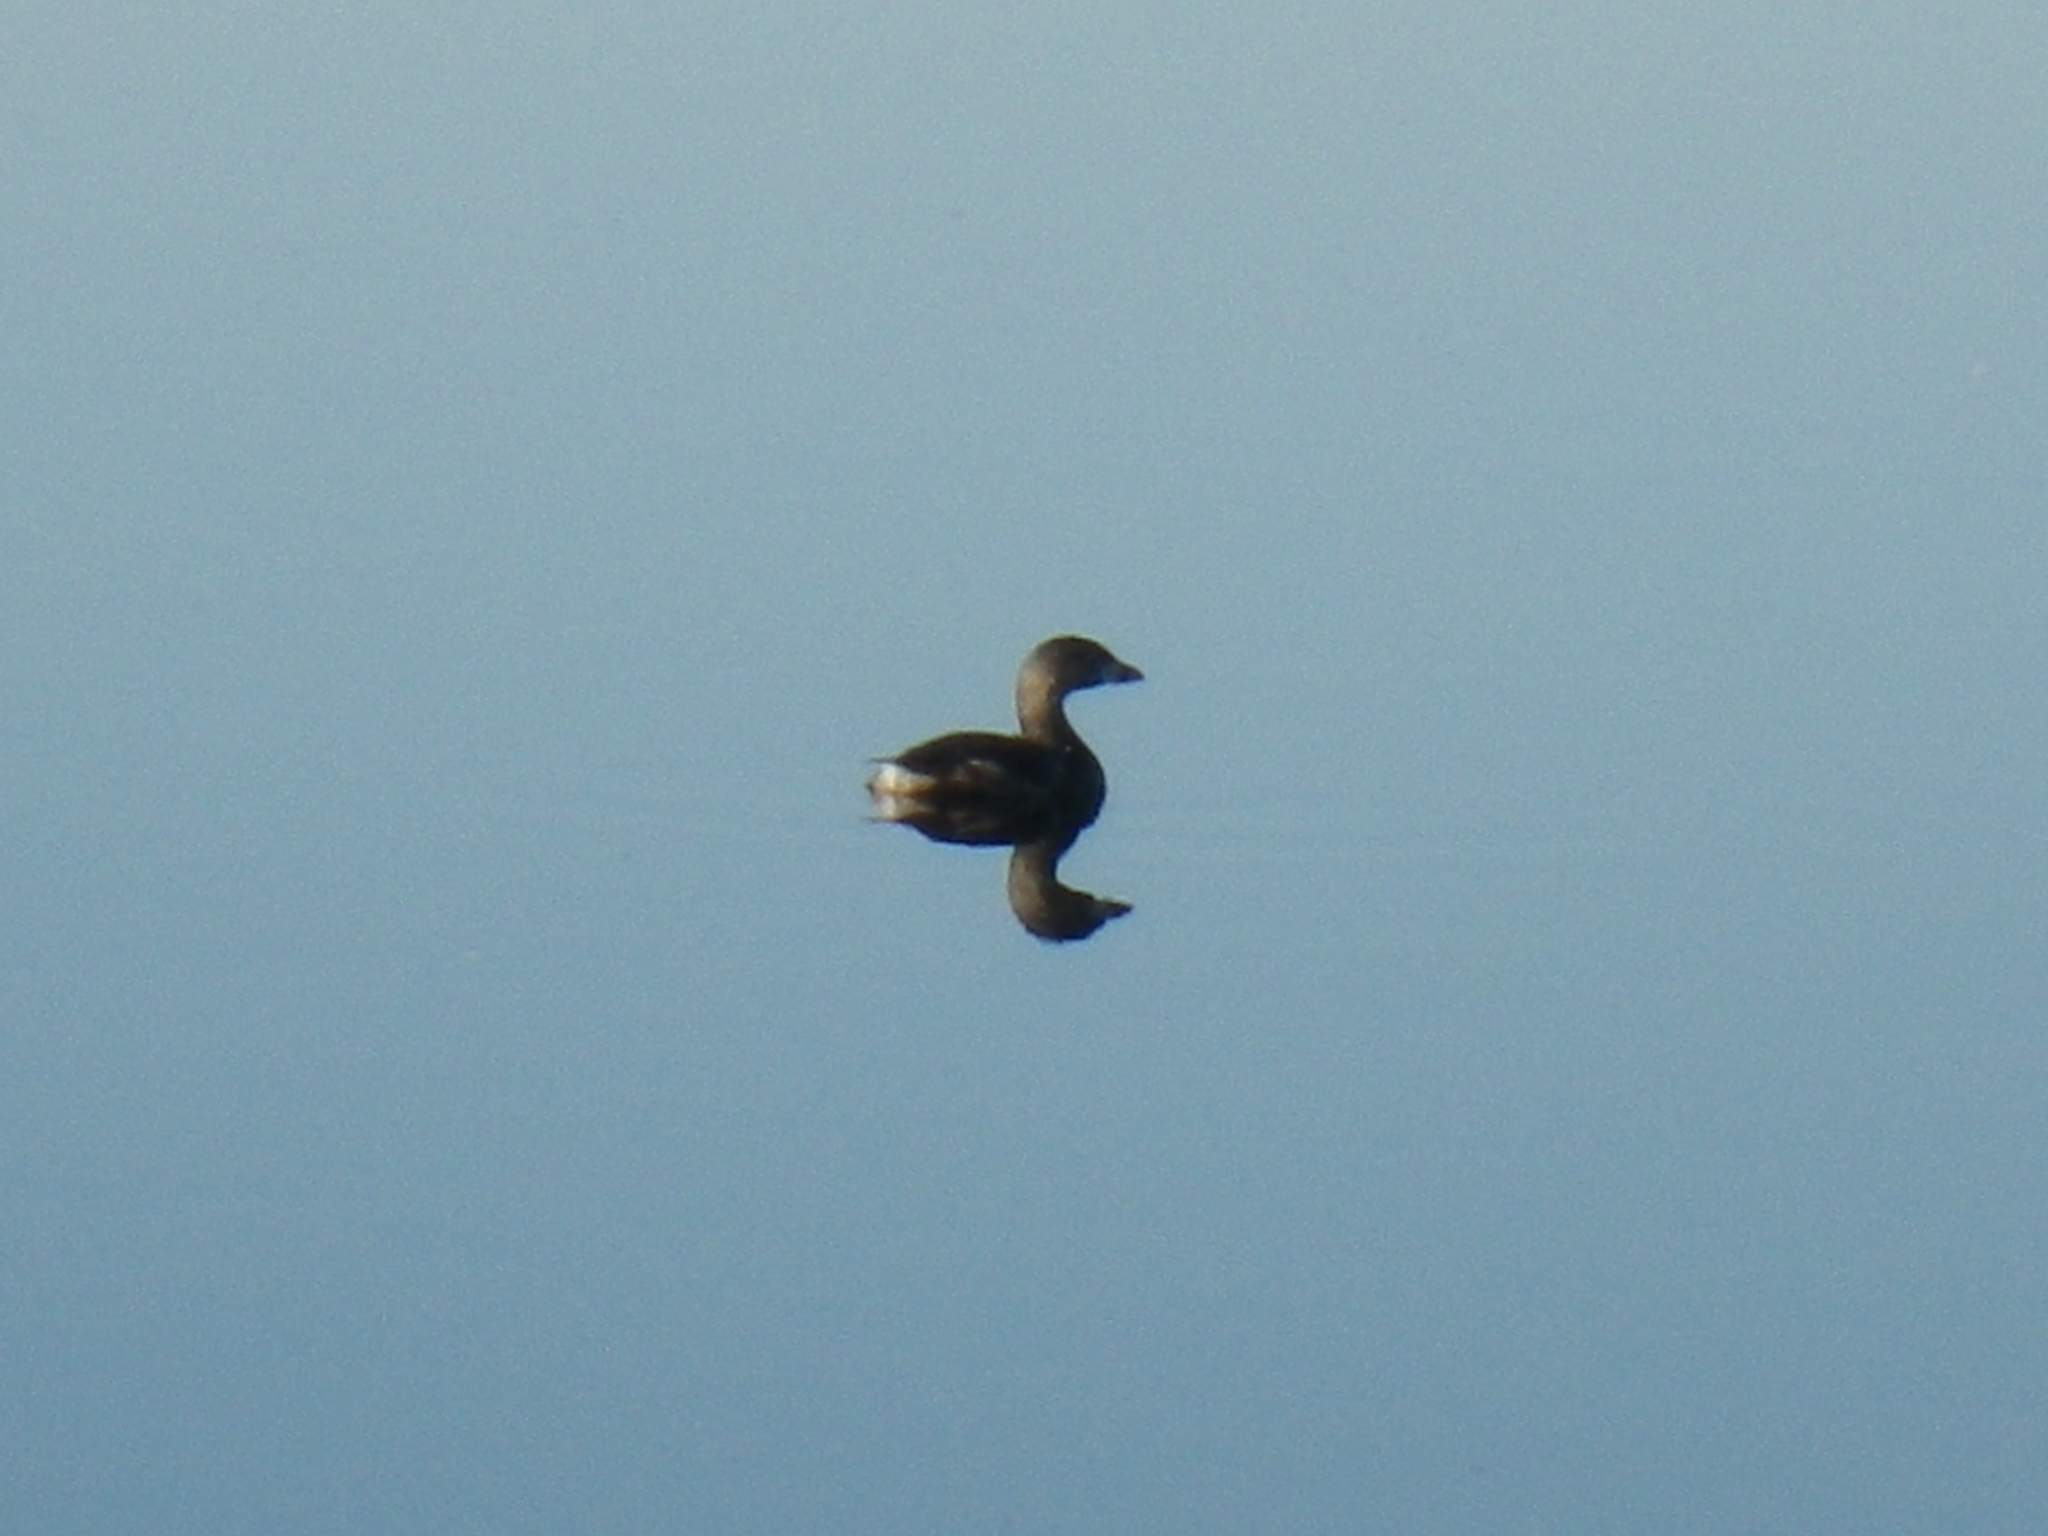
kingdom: Animalia
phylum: Chordata
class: Aves
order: Podicipediformes
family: Podicipedidae
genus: Podilymbus
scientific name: Podilymbus podiceps
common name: Pied-billed grebe
